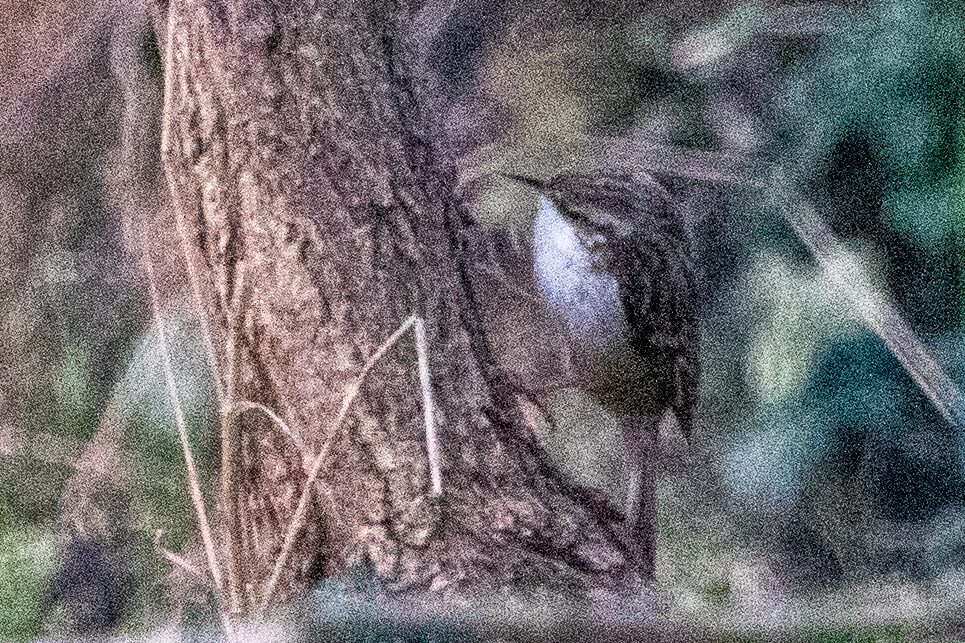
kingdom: Animalia
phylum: Chordata
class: Aves
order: Passeriformes
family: Certhiidae
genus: Certhia
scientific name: Certhia brachydactyla
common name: Short-toed treecreeper
